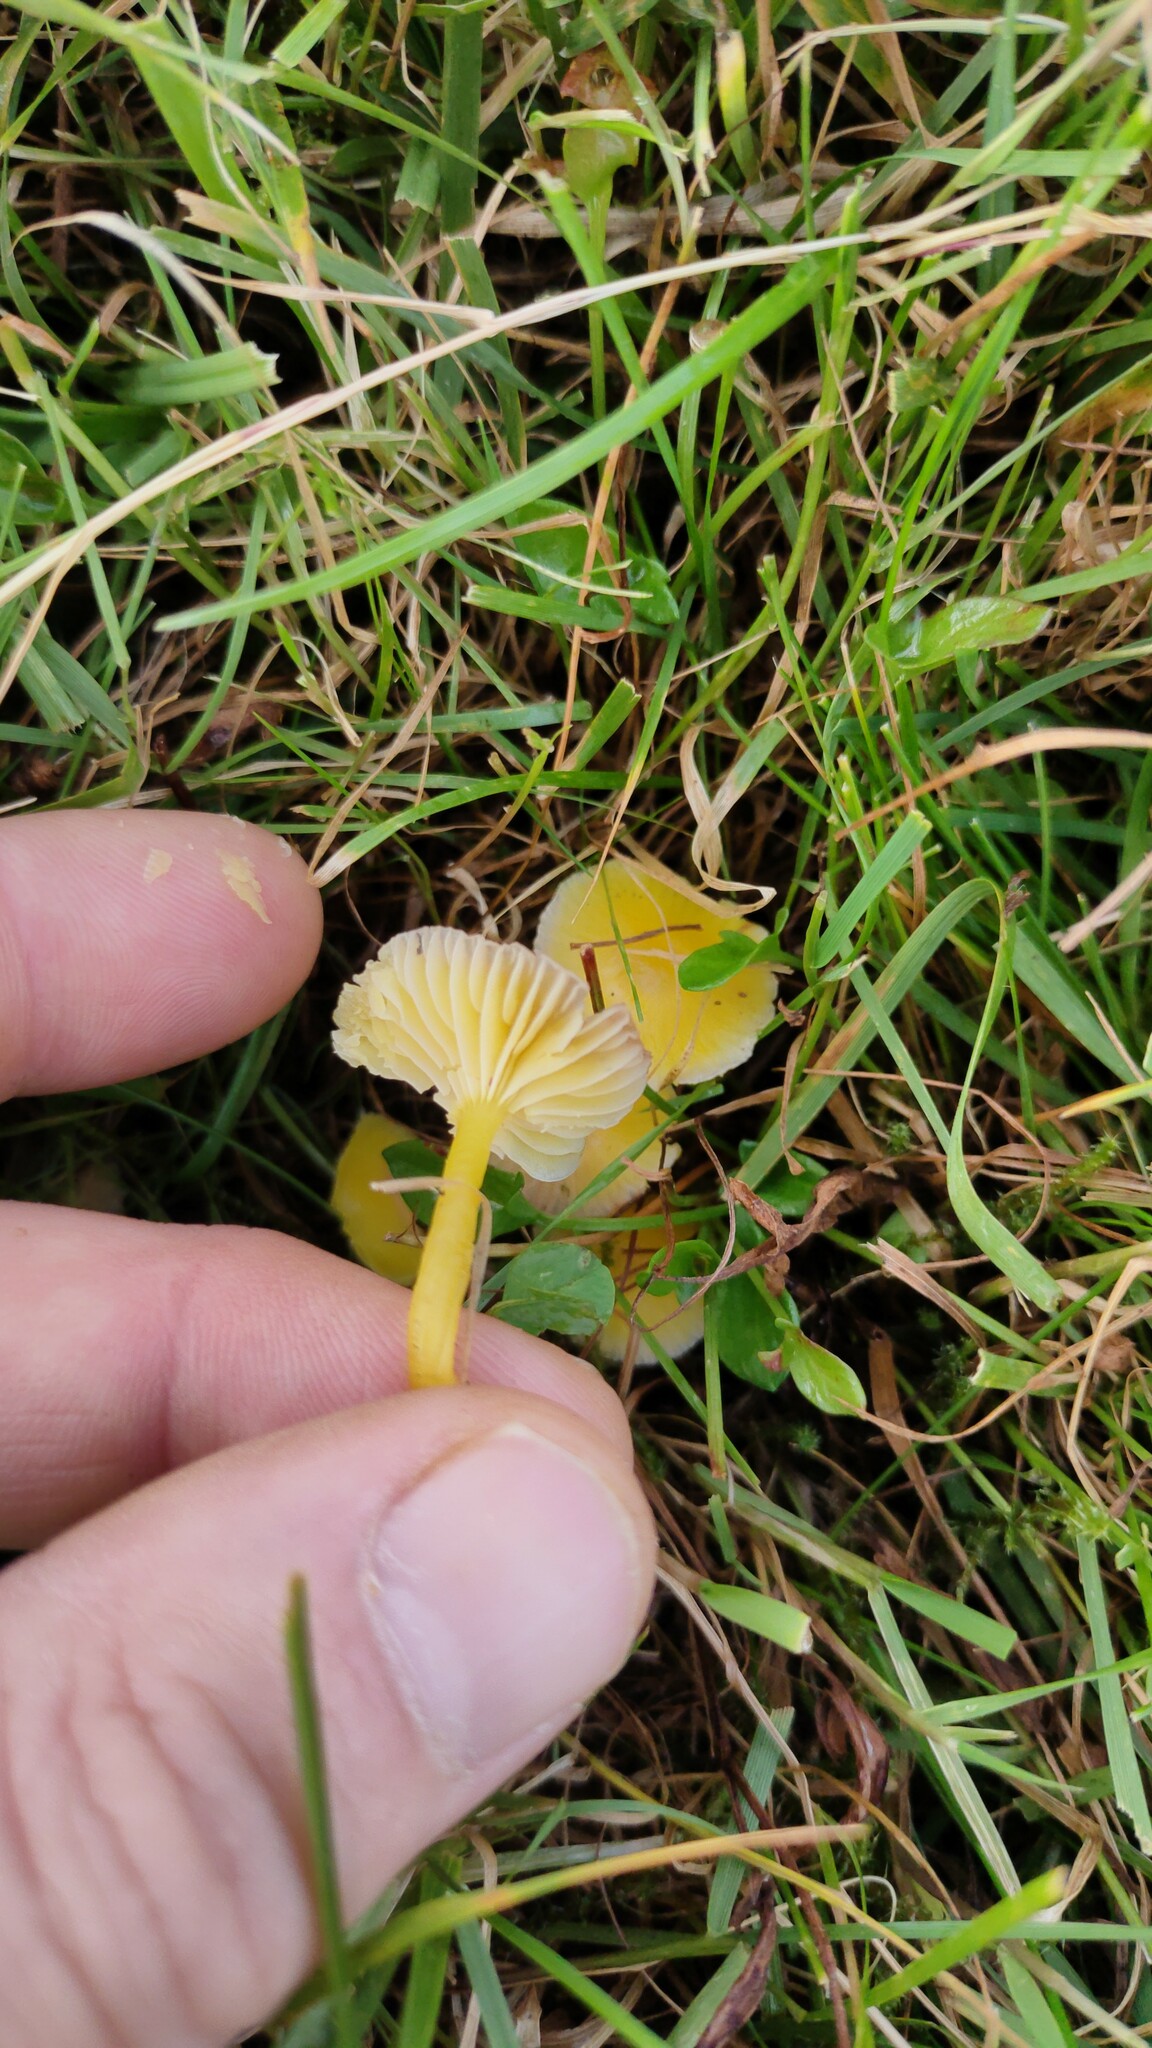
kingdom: Fungi
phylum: Basidiomycota
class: Agaricomycetes
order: Agaricales
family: Hygrophoraceae
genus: Hygrocybe
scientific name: Hygrocybe ceracea
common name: Butter waxcap
